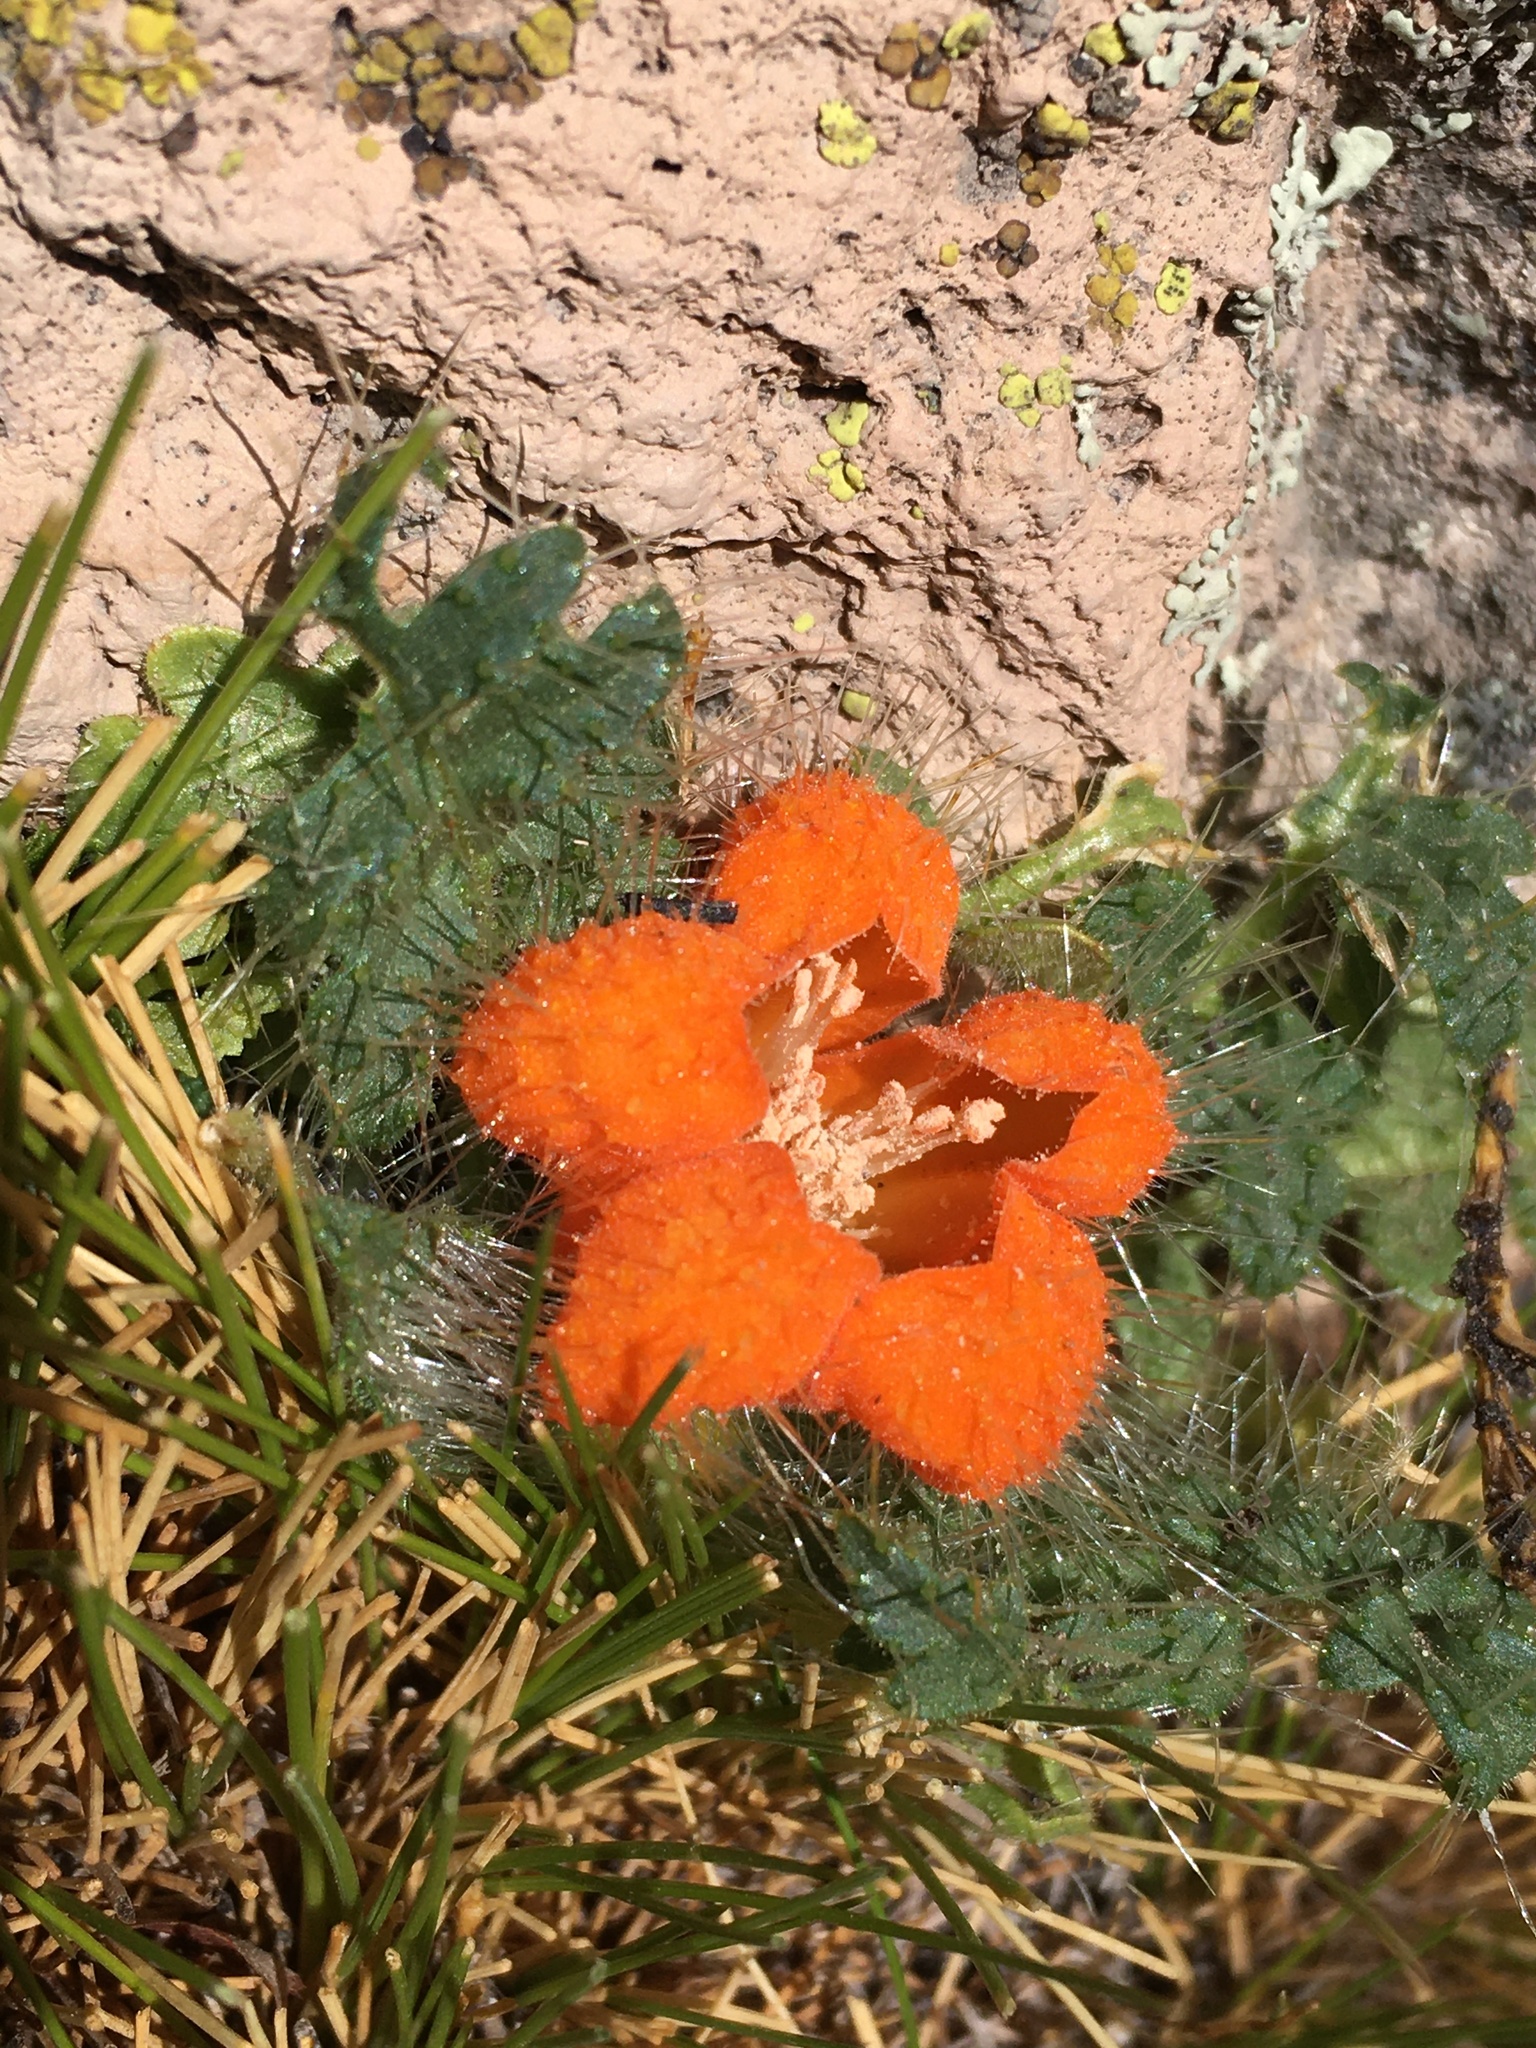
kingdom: Plantae
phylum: Tracheophyta
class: Magnoliopsida
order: Cornales
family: Loasaceae
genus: Caiophora
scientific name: Caiophora rosulata
